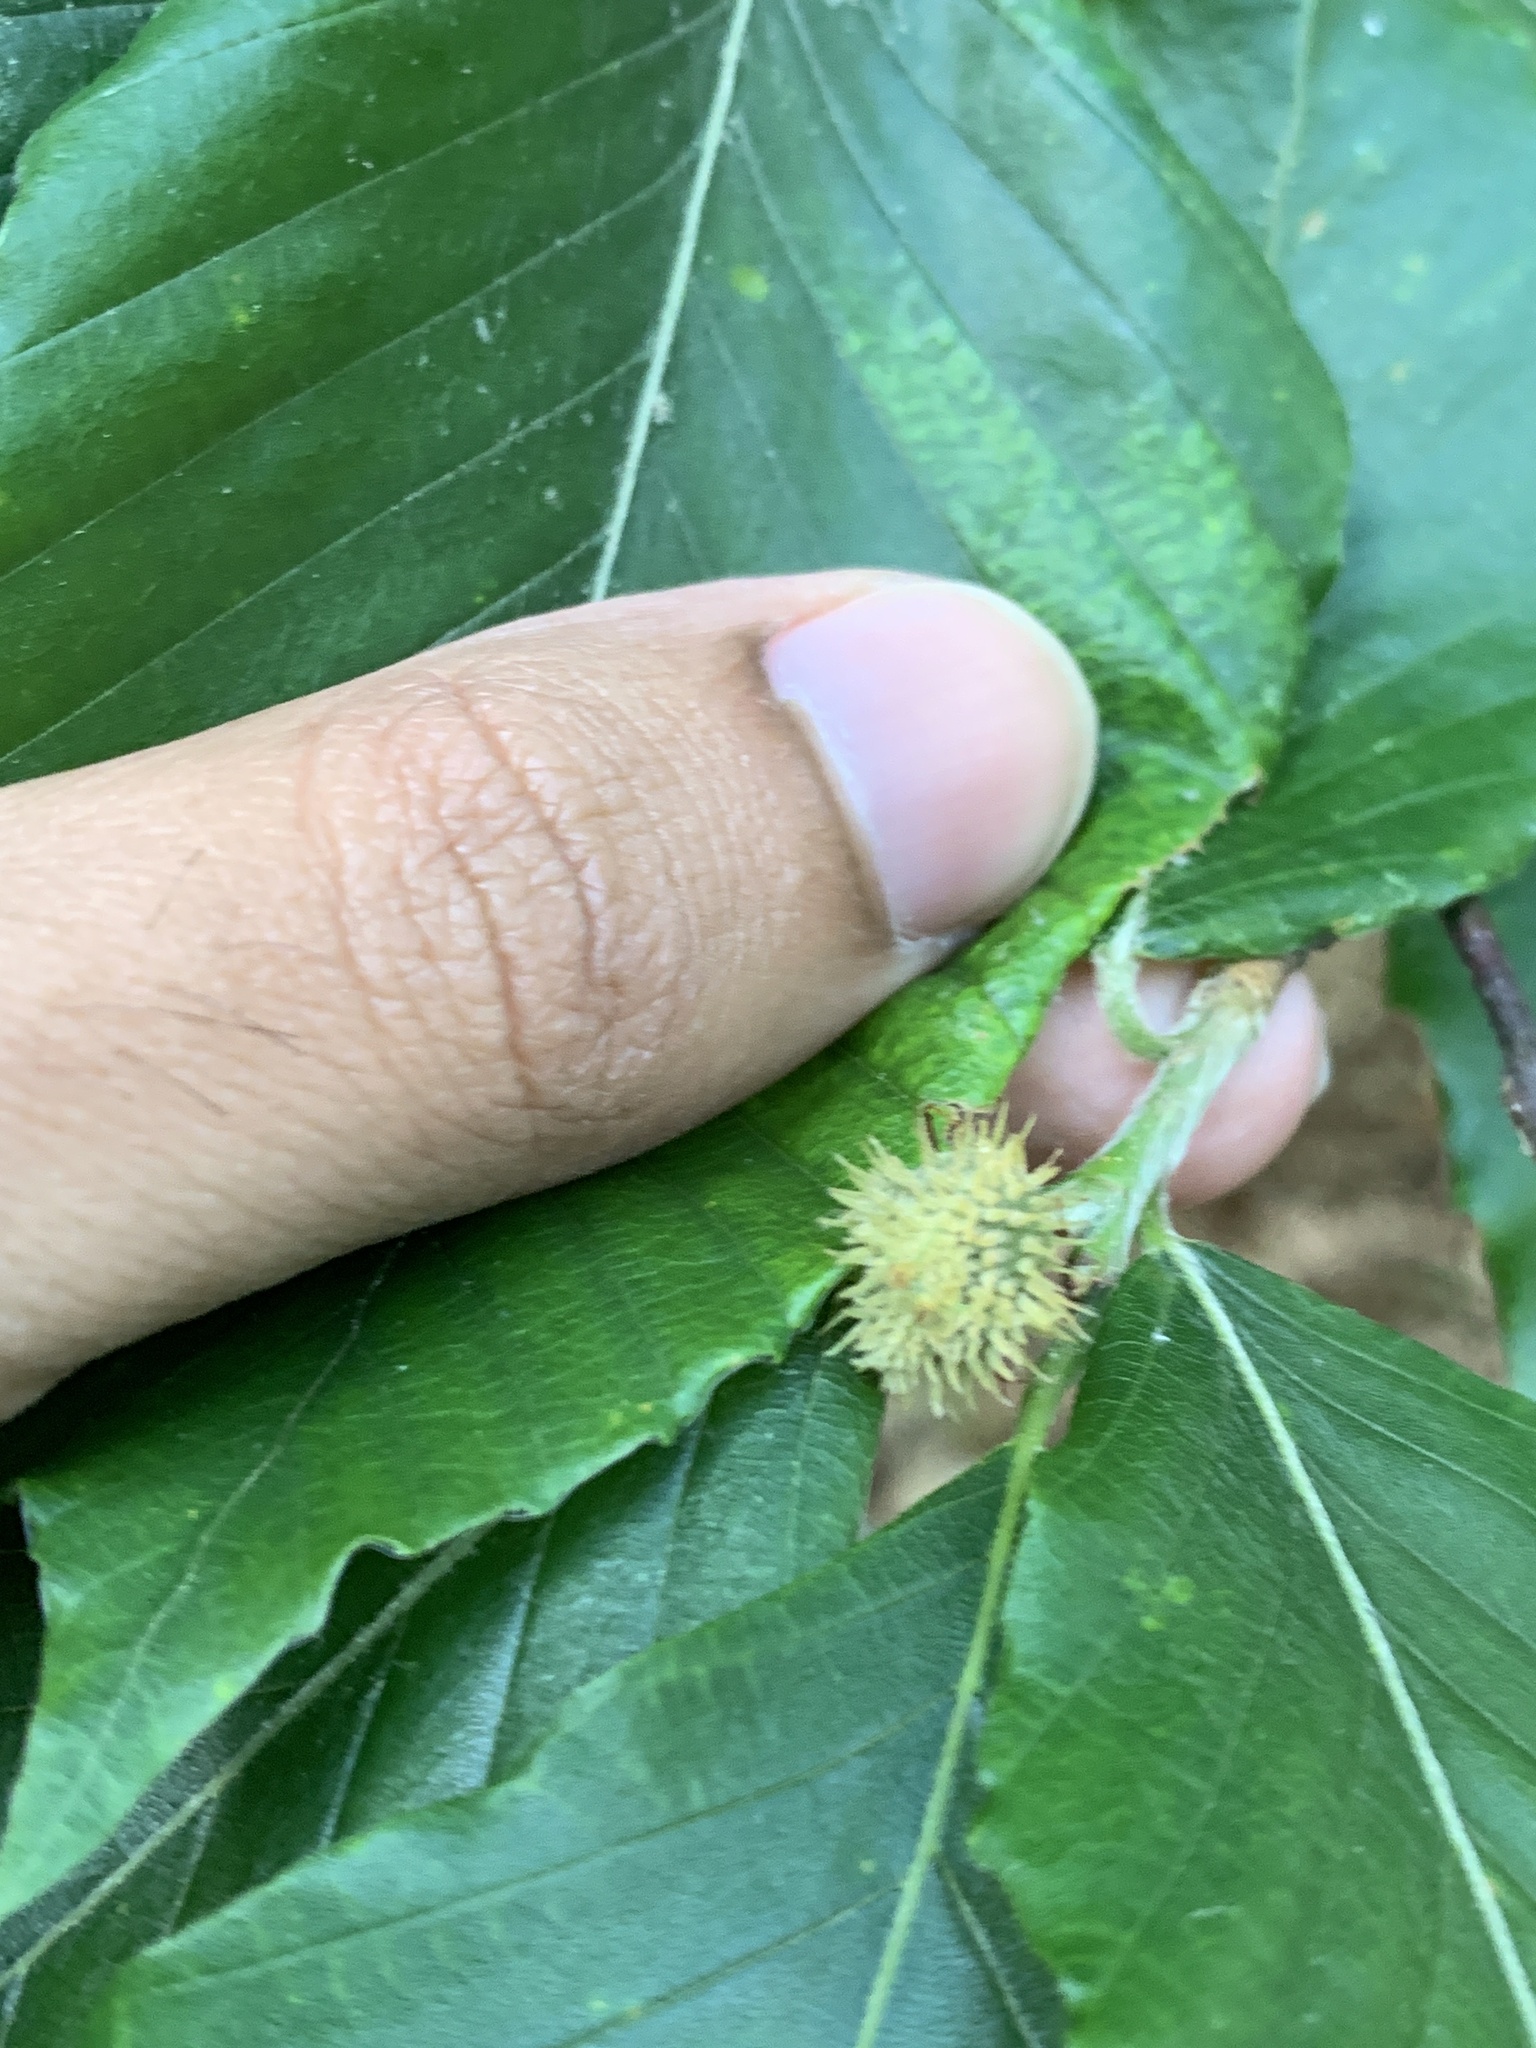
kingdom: Plantae
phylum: Tracheophyta
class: Magnoliopsida
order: Fagales
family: Fagaceae
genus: Fagus
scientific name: Fagus grandifolia
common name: American beech
